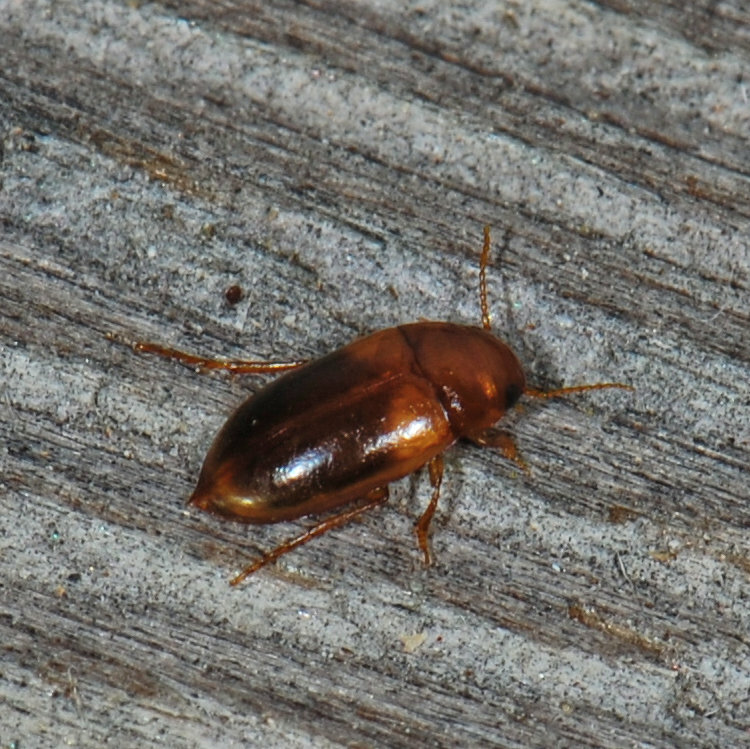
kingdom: Animalia
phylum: Arthropoda
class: Insecta
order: Coleoptera
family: Dytiscidae
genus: Celina
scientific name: Celina hubbelli
